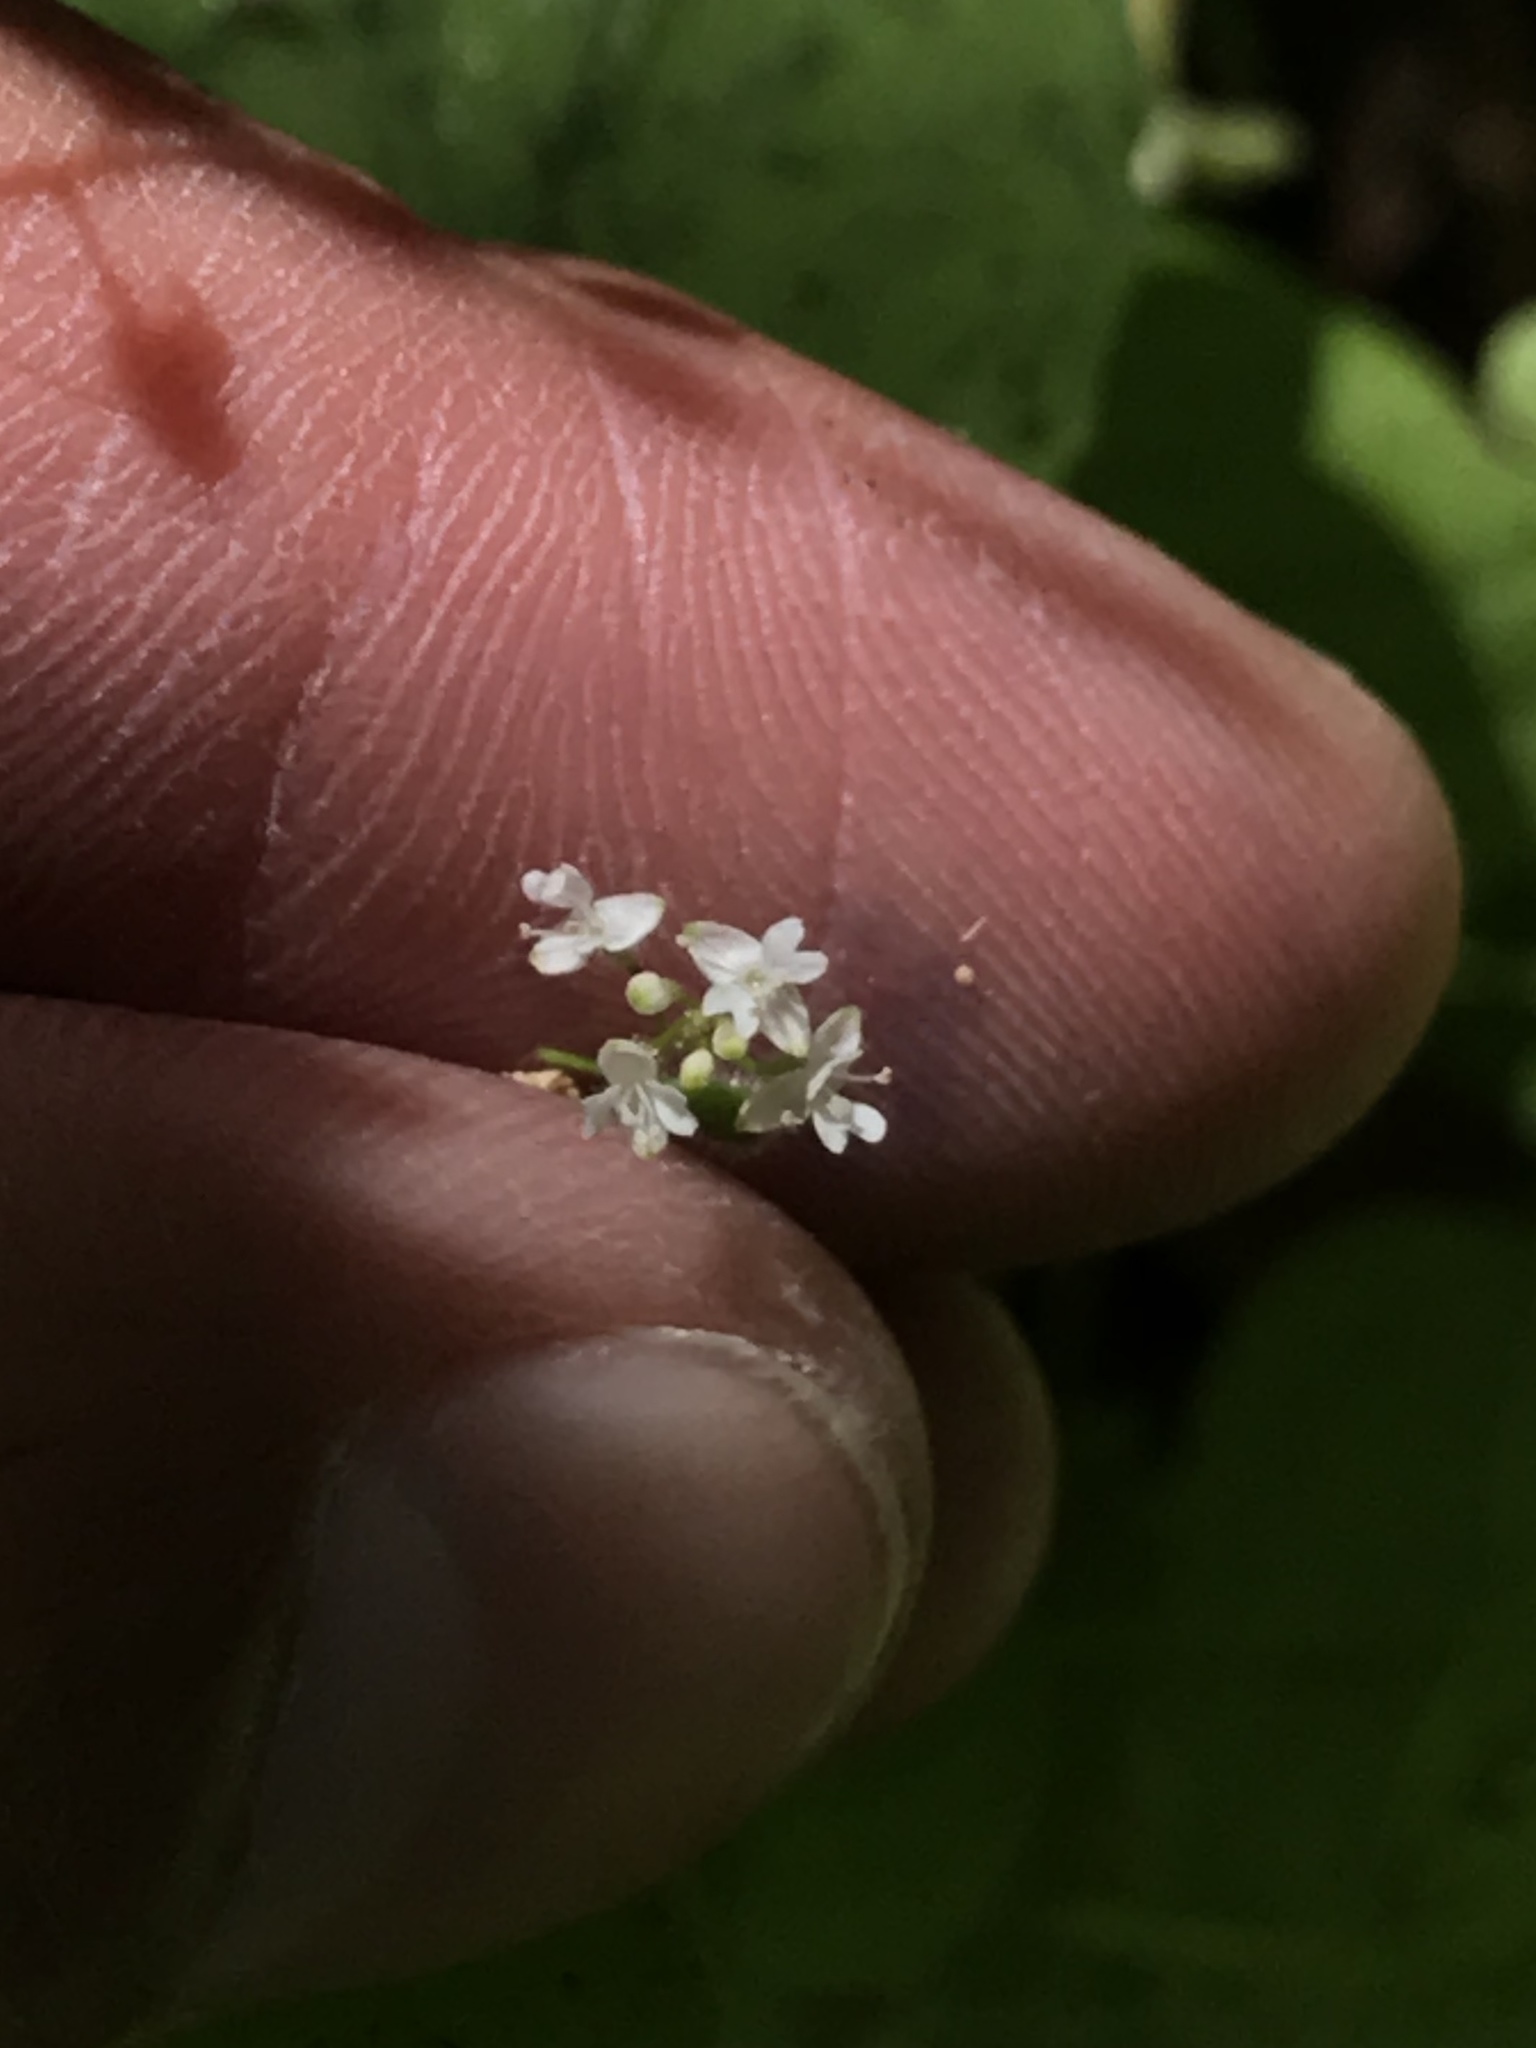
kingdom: Plantae
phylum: Tracheophyta
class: Magnoliopsida
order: Myrtales
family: Onagraceae
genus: Circaea
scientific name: Circaea alpina
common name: Alpine enchanter's-nightshade
